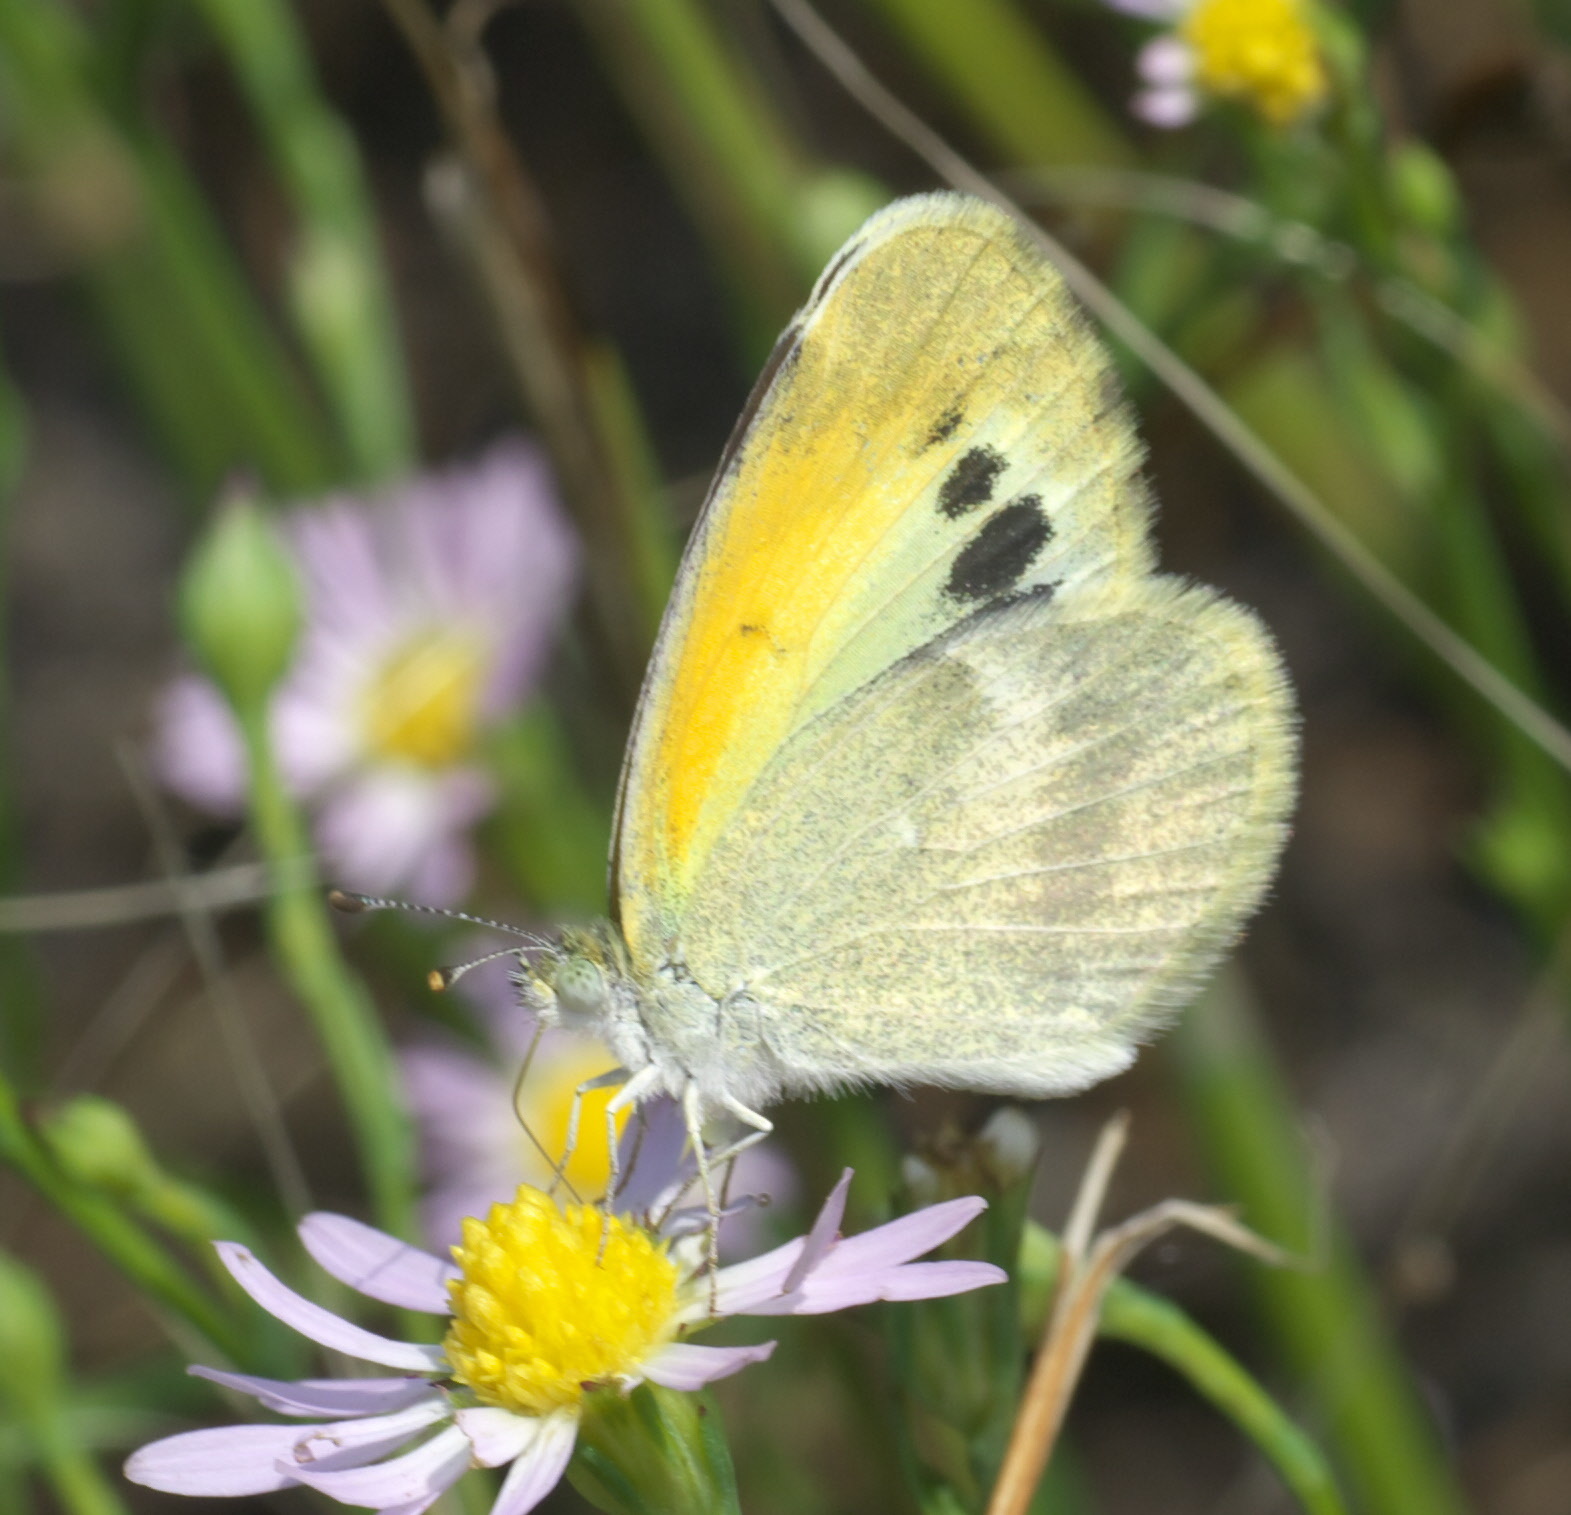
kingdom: Animalia
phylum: Arthropoda
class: Insecta
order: Lepidoptera
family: Pieridae
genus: Nathalis
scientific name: Nathalis iole
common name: Dainty sulphur
